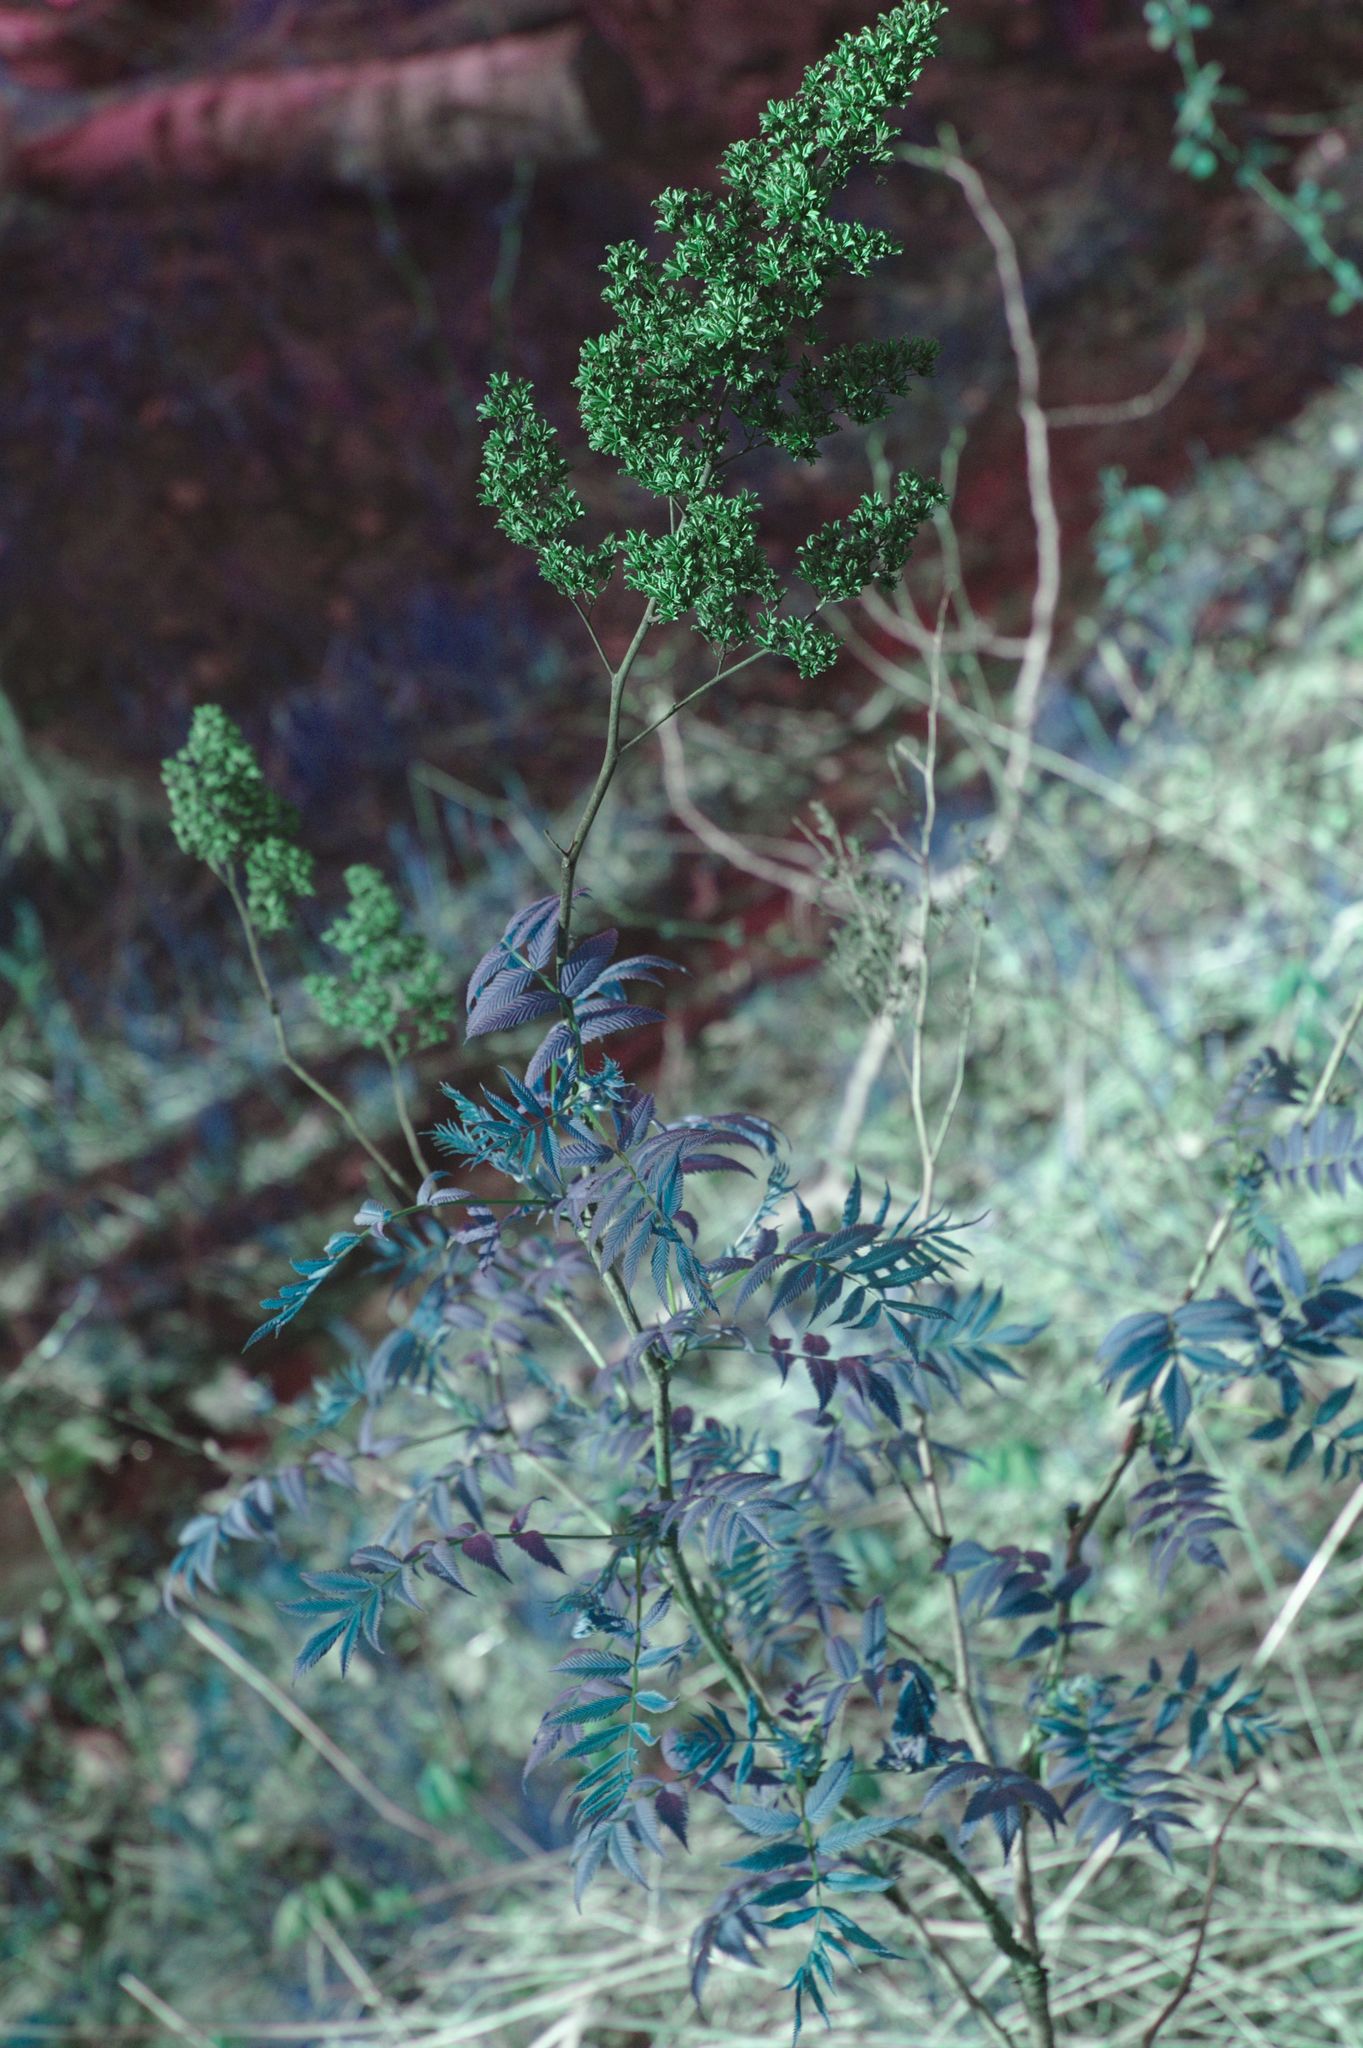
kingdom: Plantae
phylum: Tracheophyta
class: Magnoliopsida
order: Rosales
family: Rosaceae
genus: Sorbaria
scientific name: Sorbaria sorbifolia
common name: False spiraea
